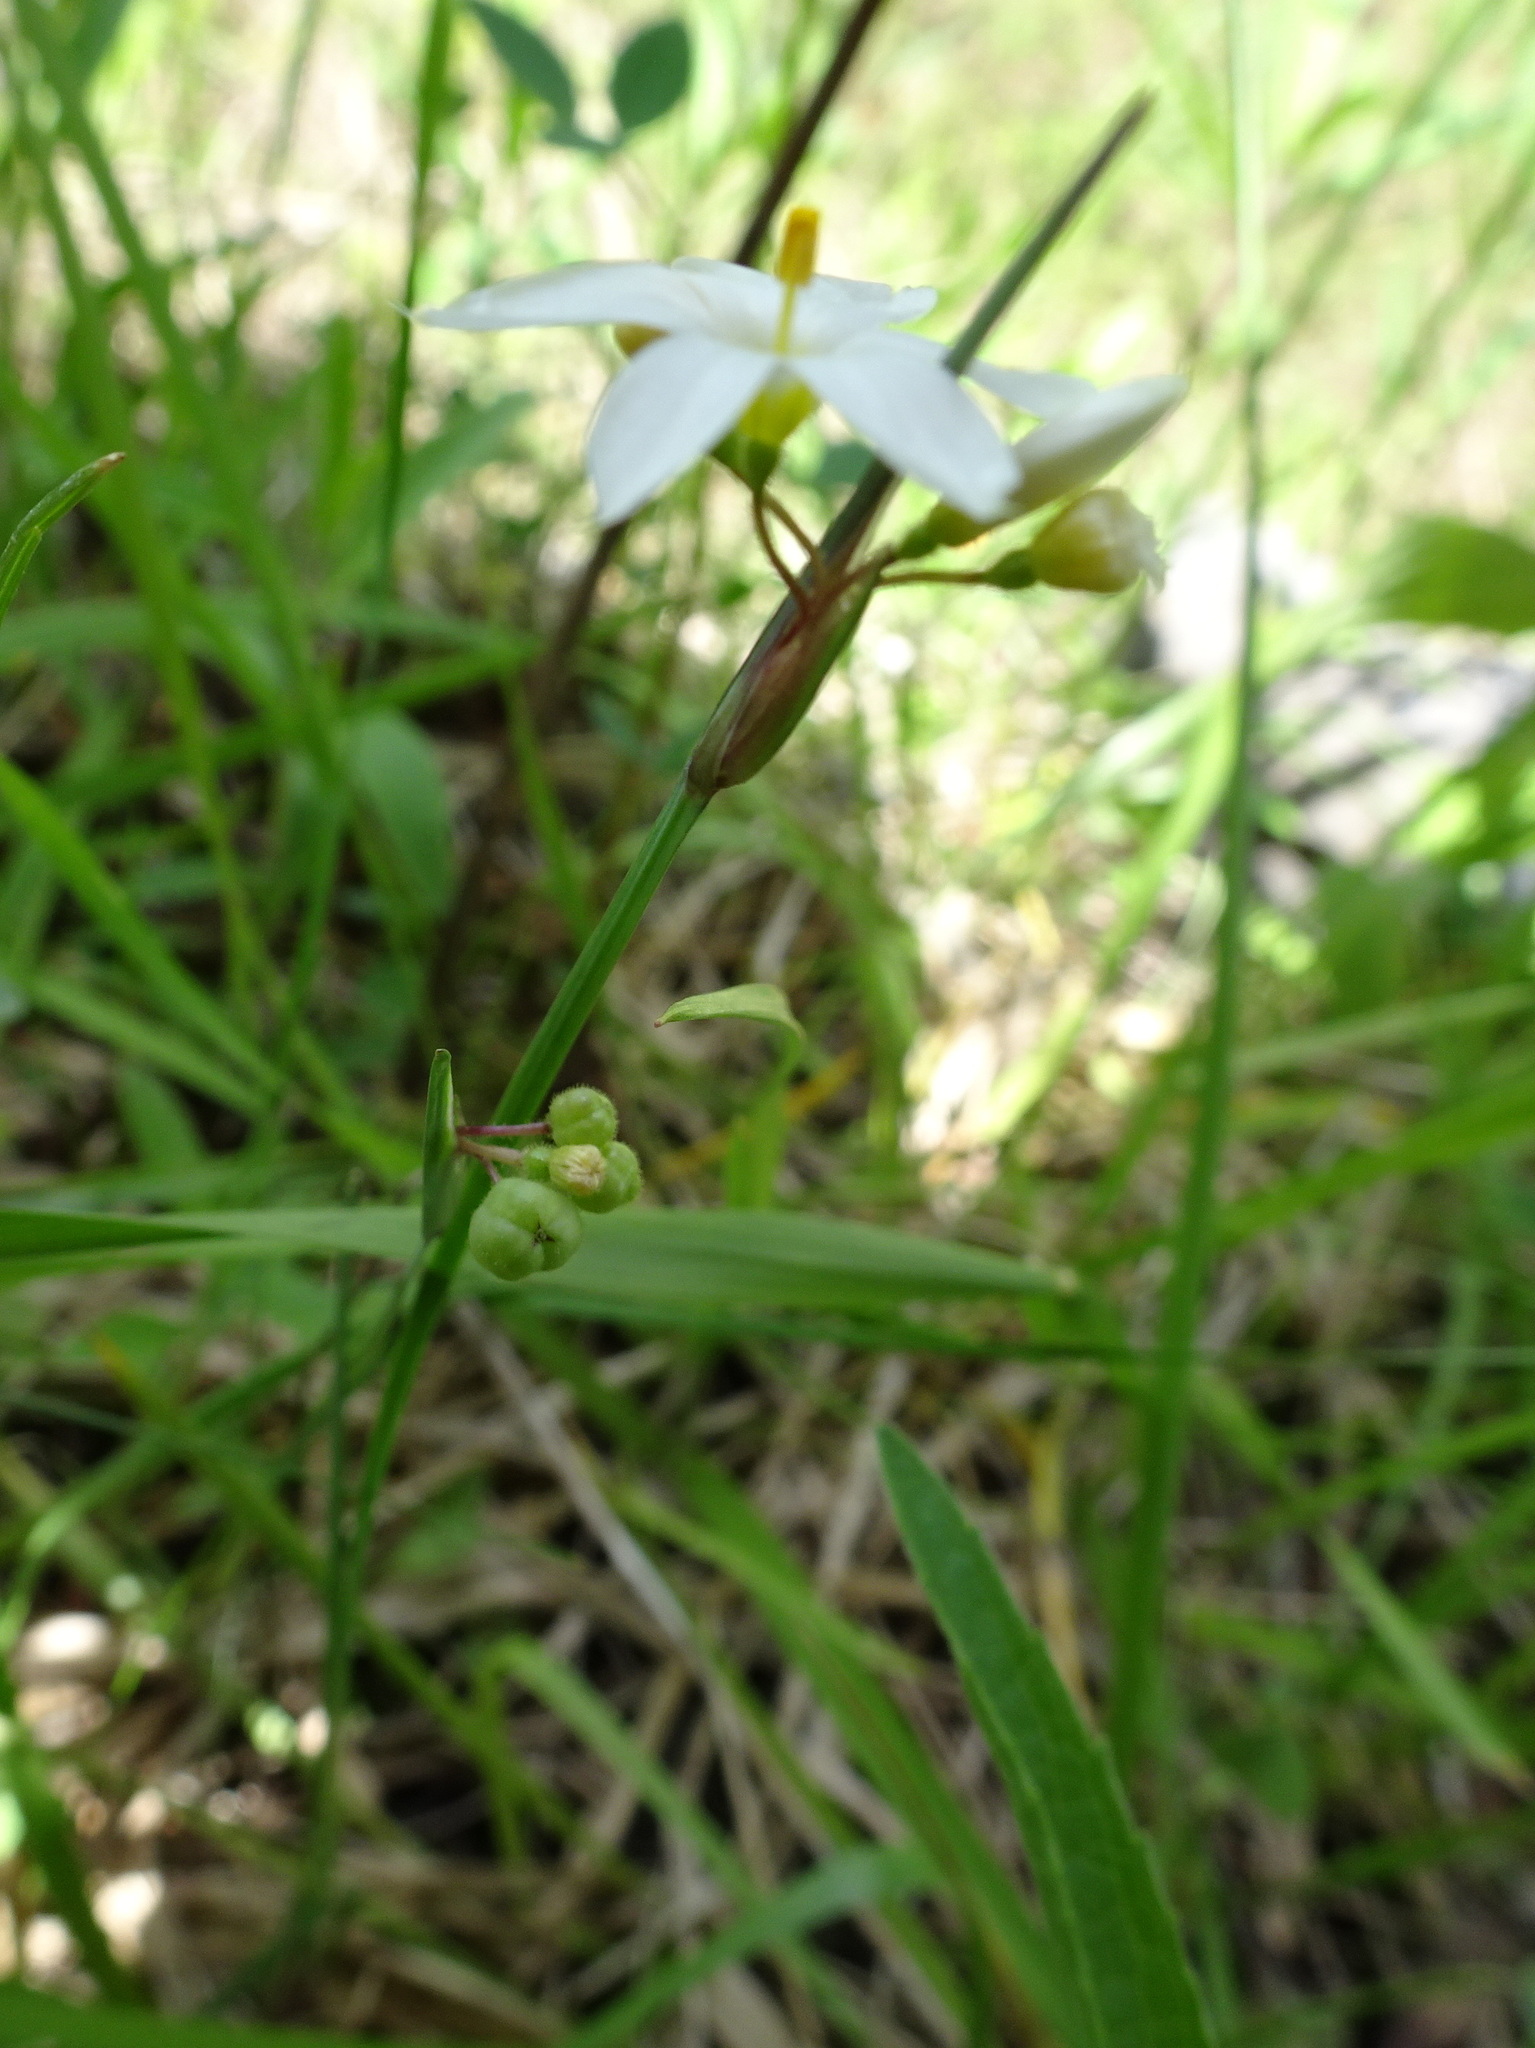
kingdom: Plantae
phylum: Tracheophyta
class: Liliopsida
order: Asparagales
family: Iridaceae
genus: Sisyrinchium
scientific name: Sisyrinchium campestre
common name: Prairie blue-eyed-grass
